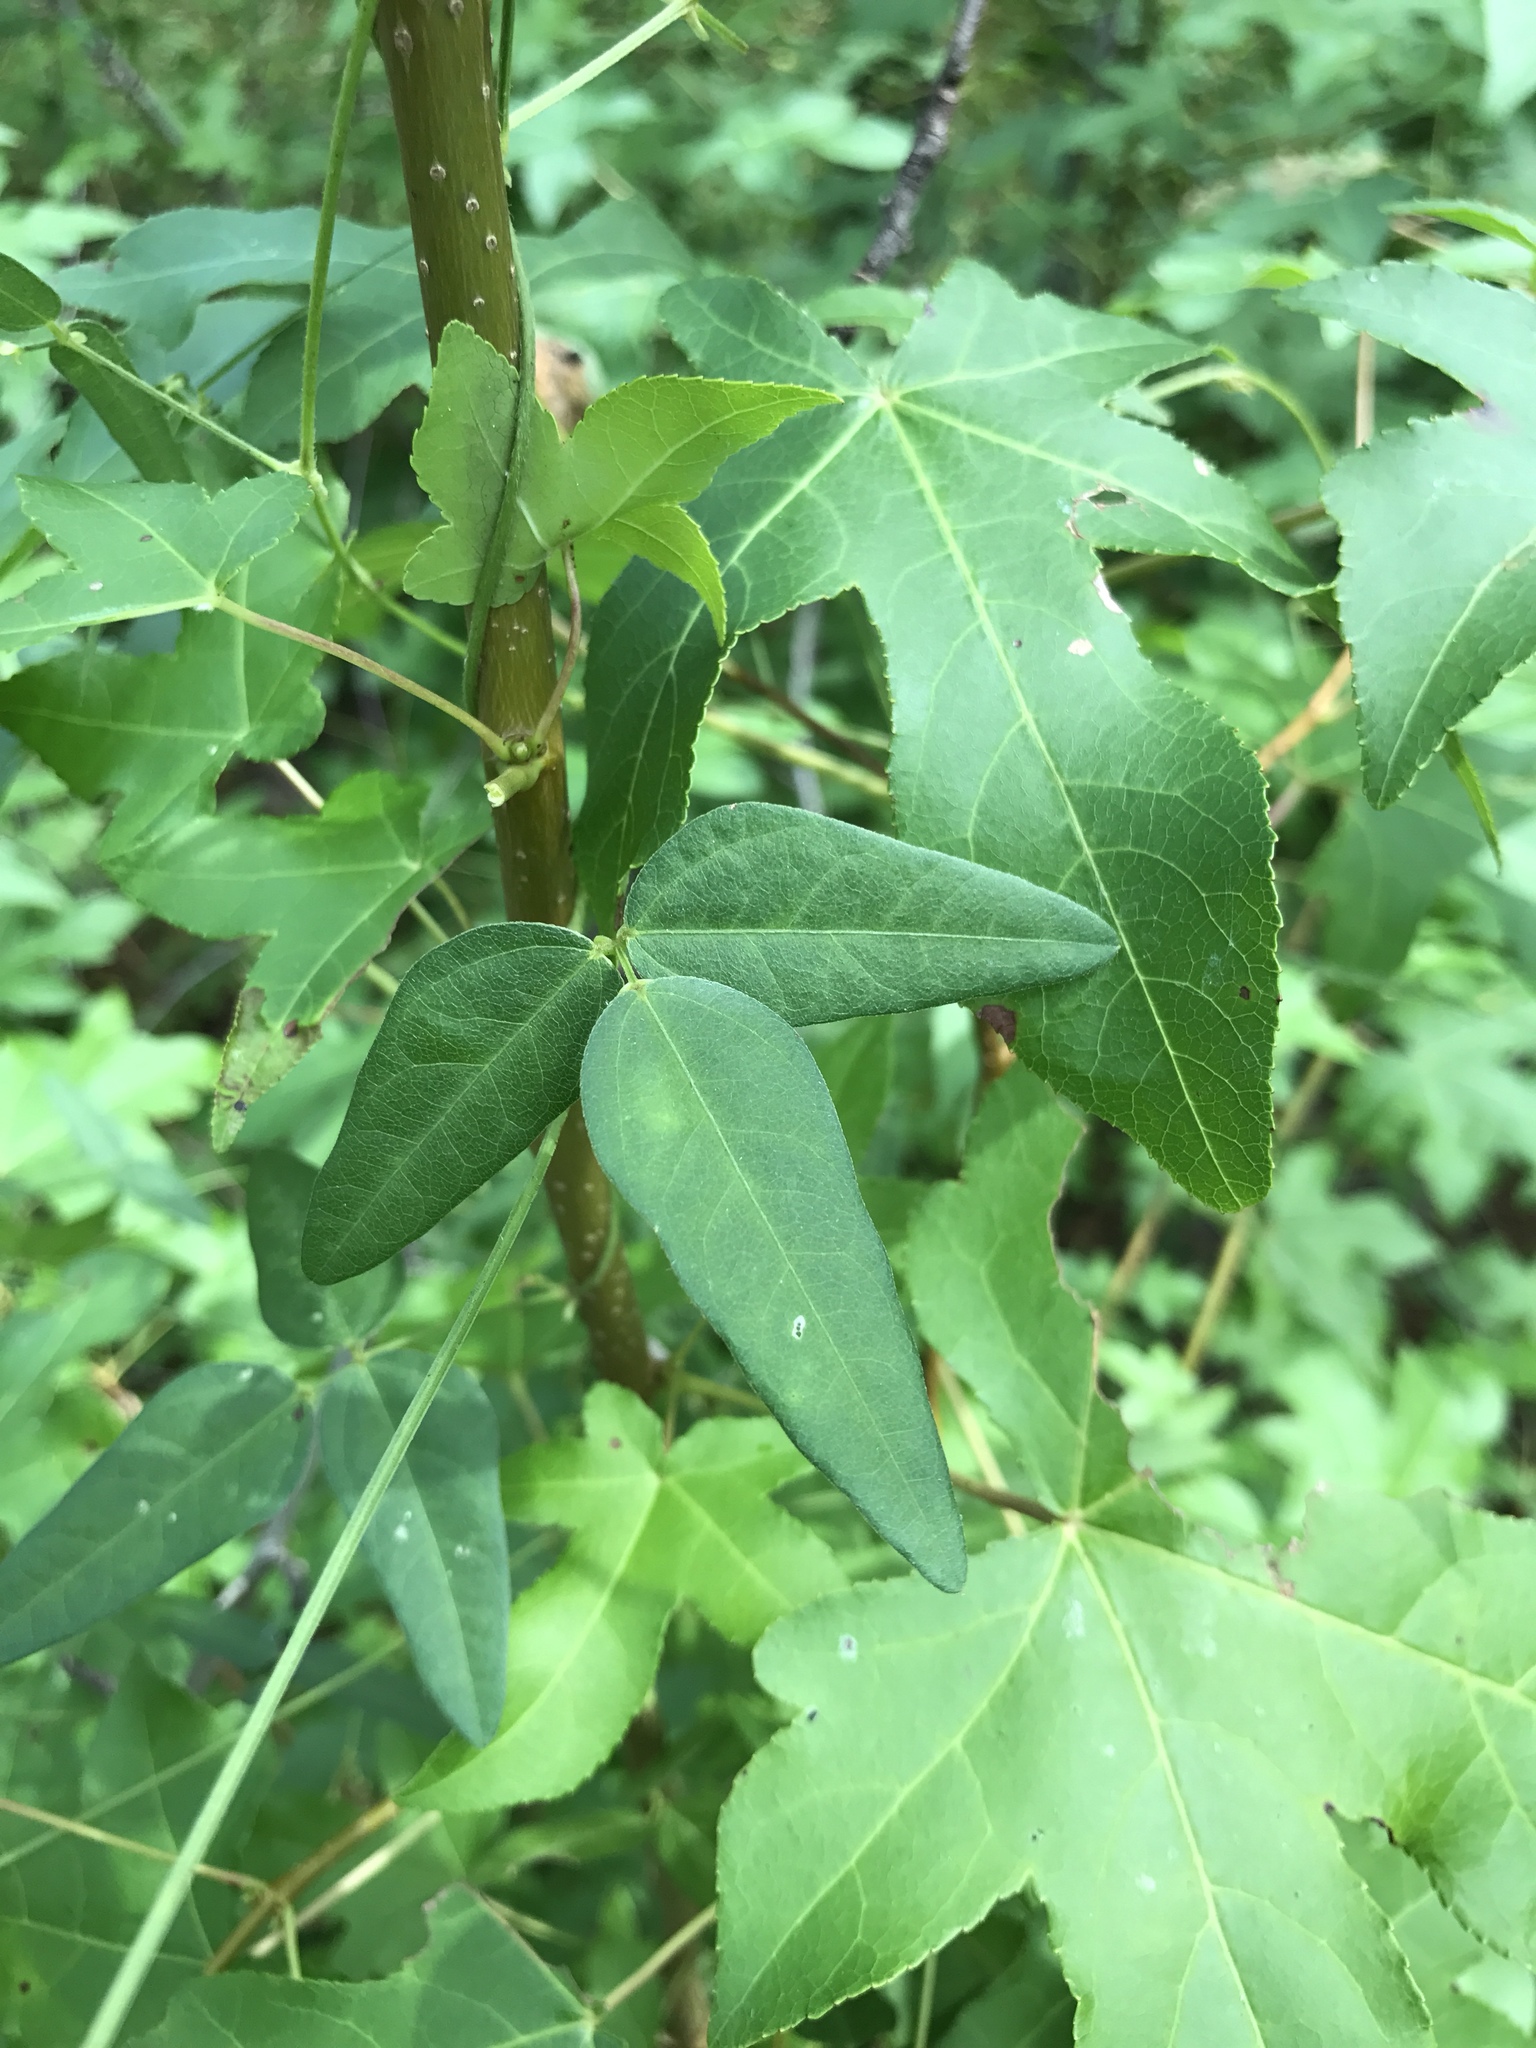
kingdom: Plantae
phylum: Tracheophyta
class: Magnoliopsida
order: Fabales
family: Fabaceae
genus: Strophostyles
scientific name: Strophostyles umbellata
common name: Perennial wild bean
